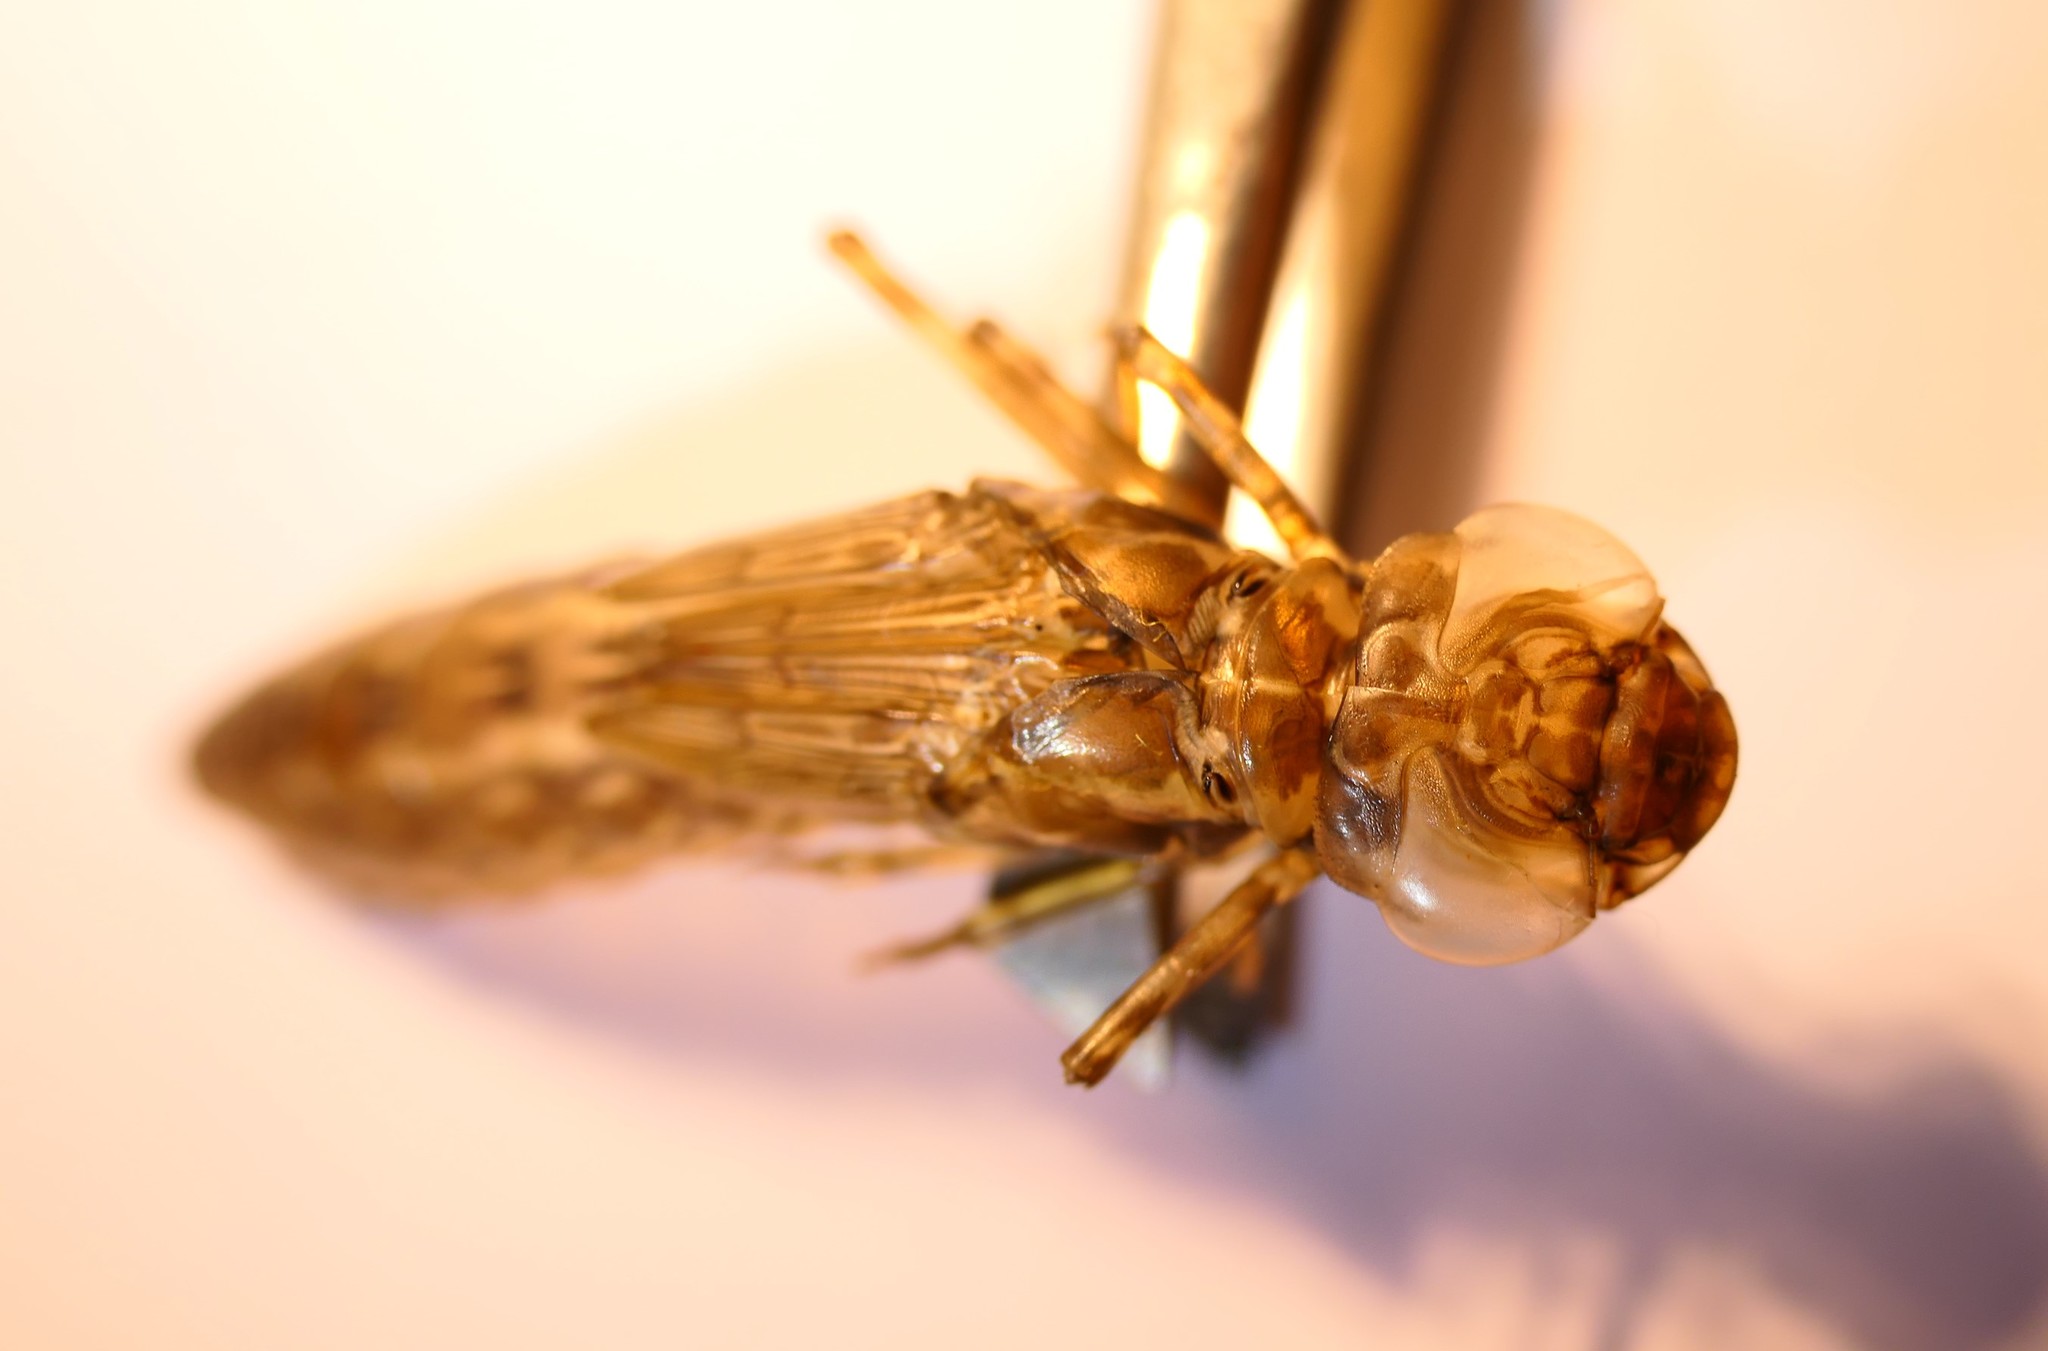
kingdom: Animalia
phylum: Arthropoda
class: Insecta
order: Odonata
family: Aeshnidae
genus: Anax
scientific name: Anax imperator
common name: Emperor dragonfly
